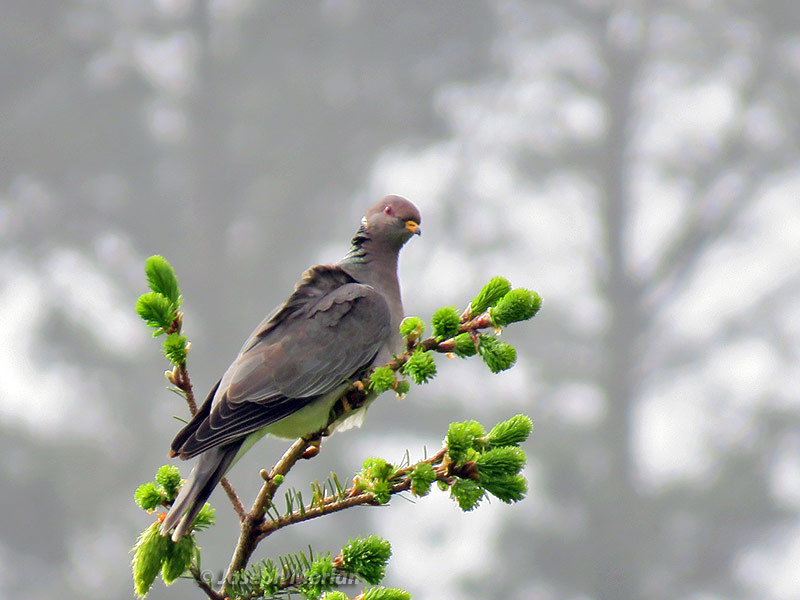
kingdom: Animalia
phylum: Chordata
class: Aves
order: Columbiformes
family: Columbidae
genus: Patagioenas
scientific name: Patagioenas fasciata
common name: Band-tailed pigeon
